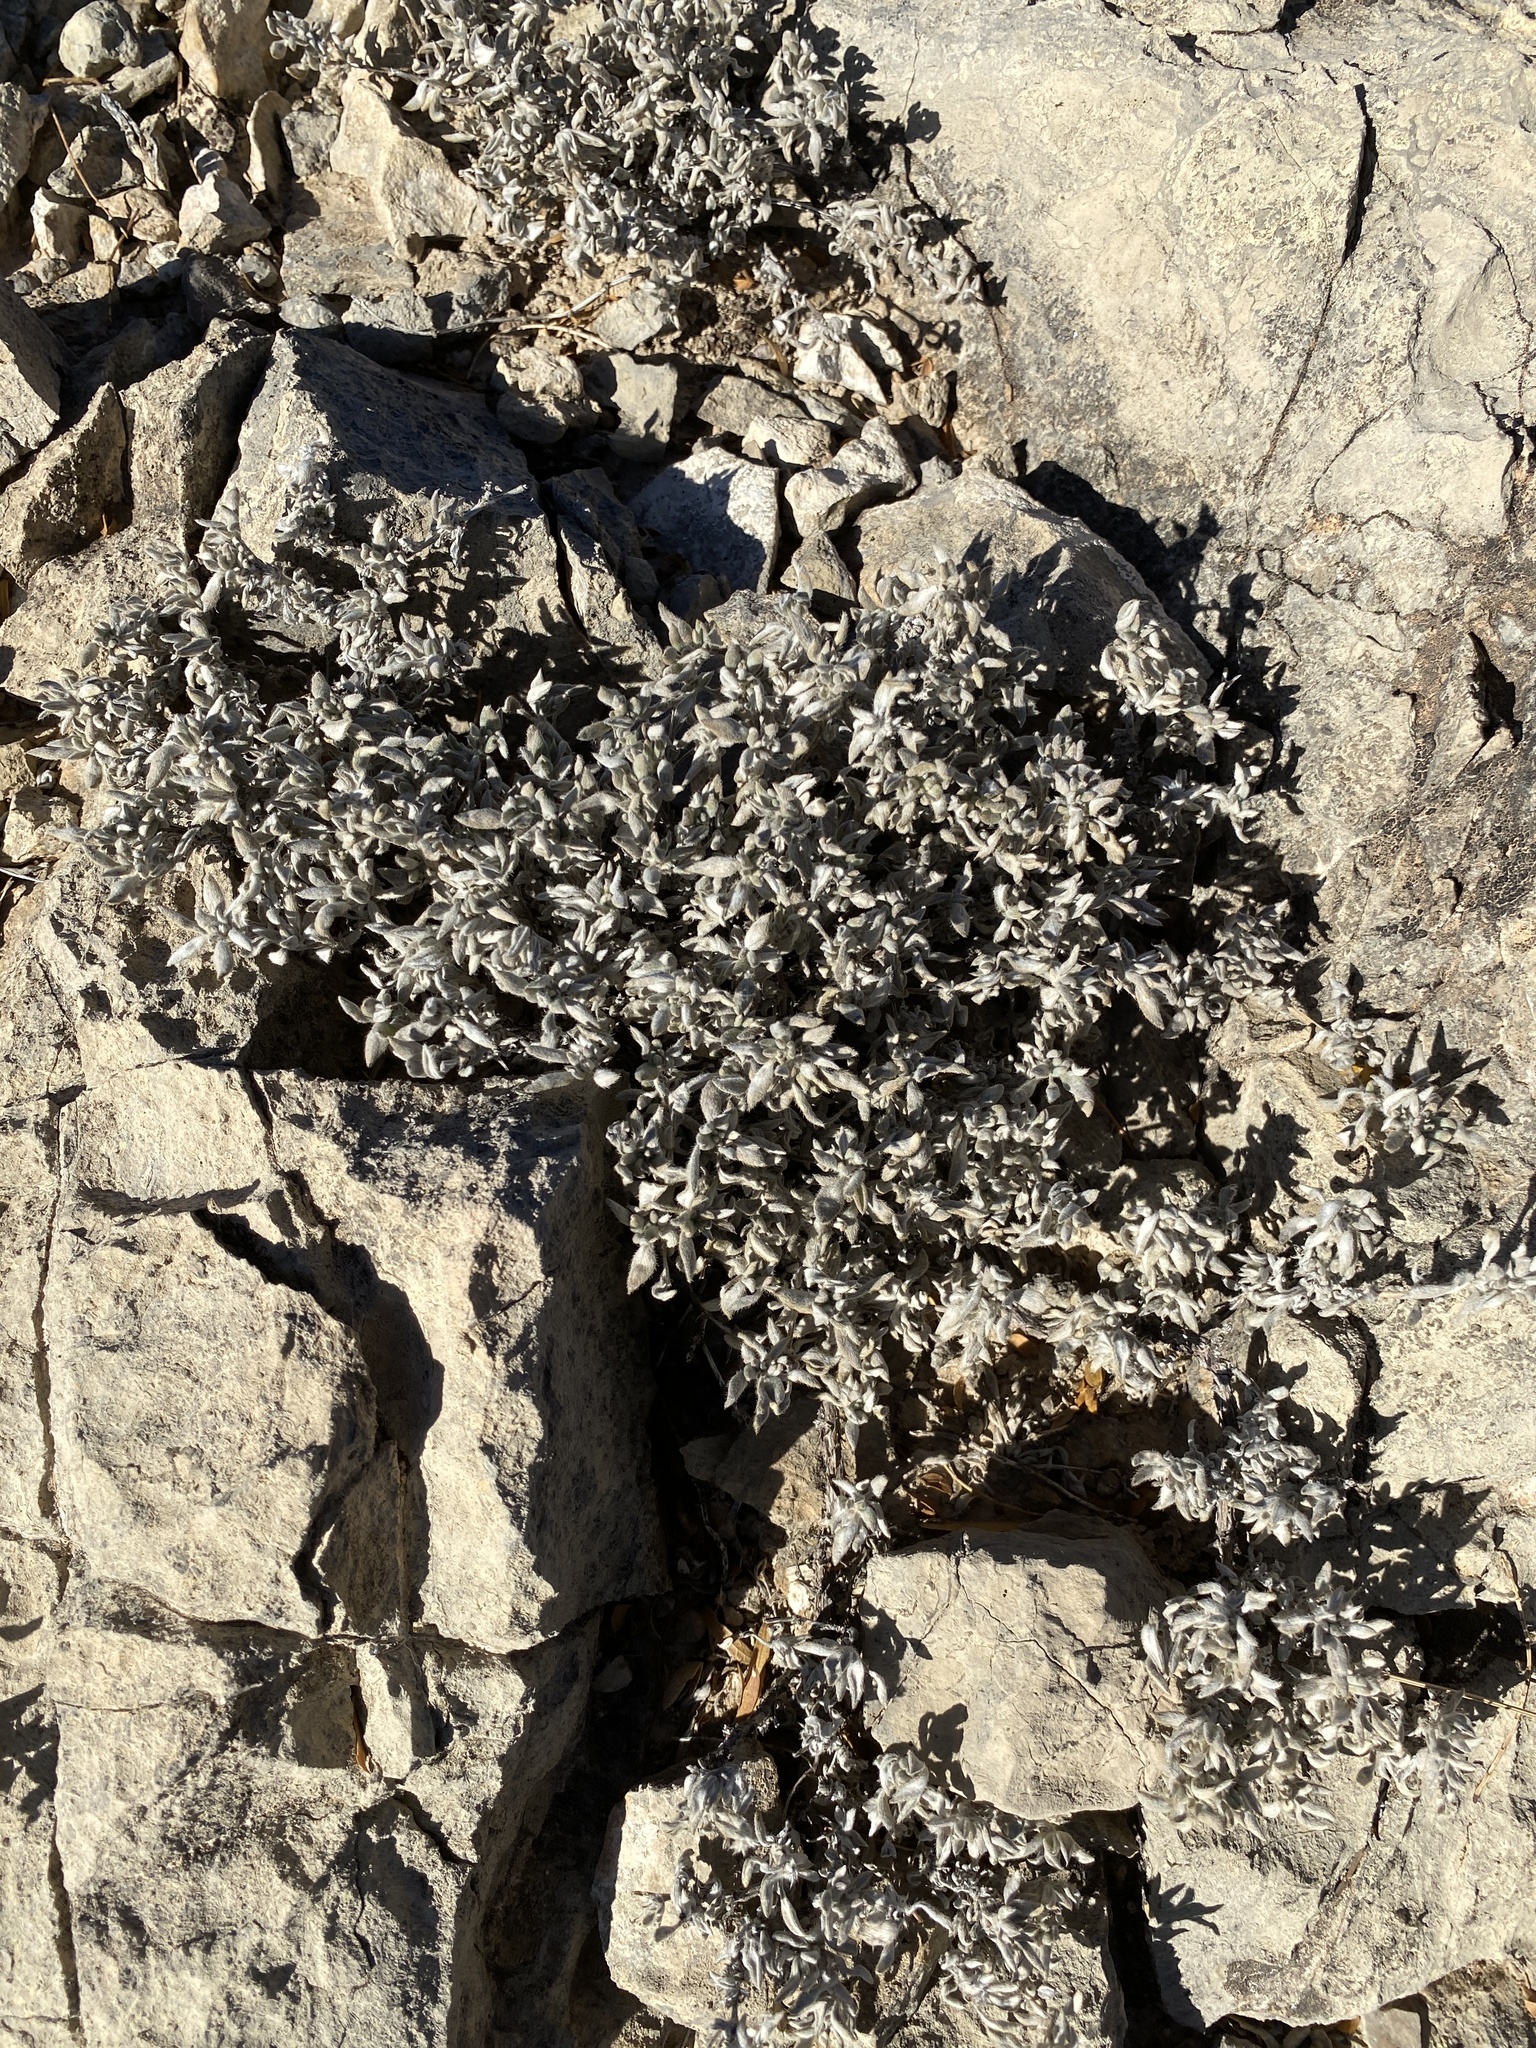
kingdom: Plantae
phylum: Tracheophyta
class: Magnoliopsida
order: Boraginales
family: Ehretiaceae
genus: Tiquilia
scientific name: Tiquilia canescens
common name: Hairy tiquilia
